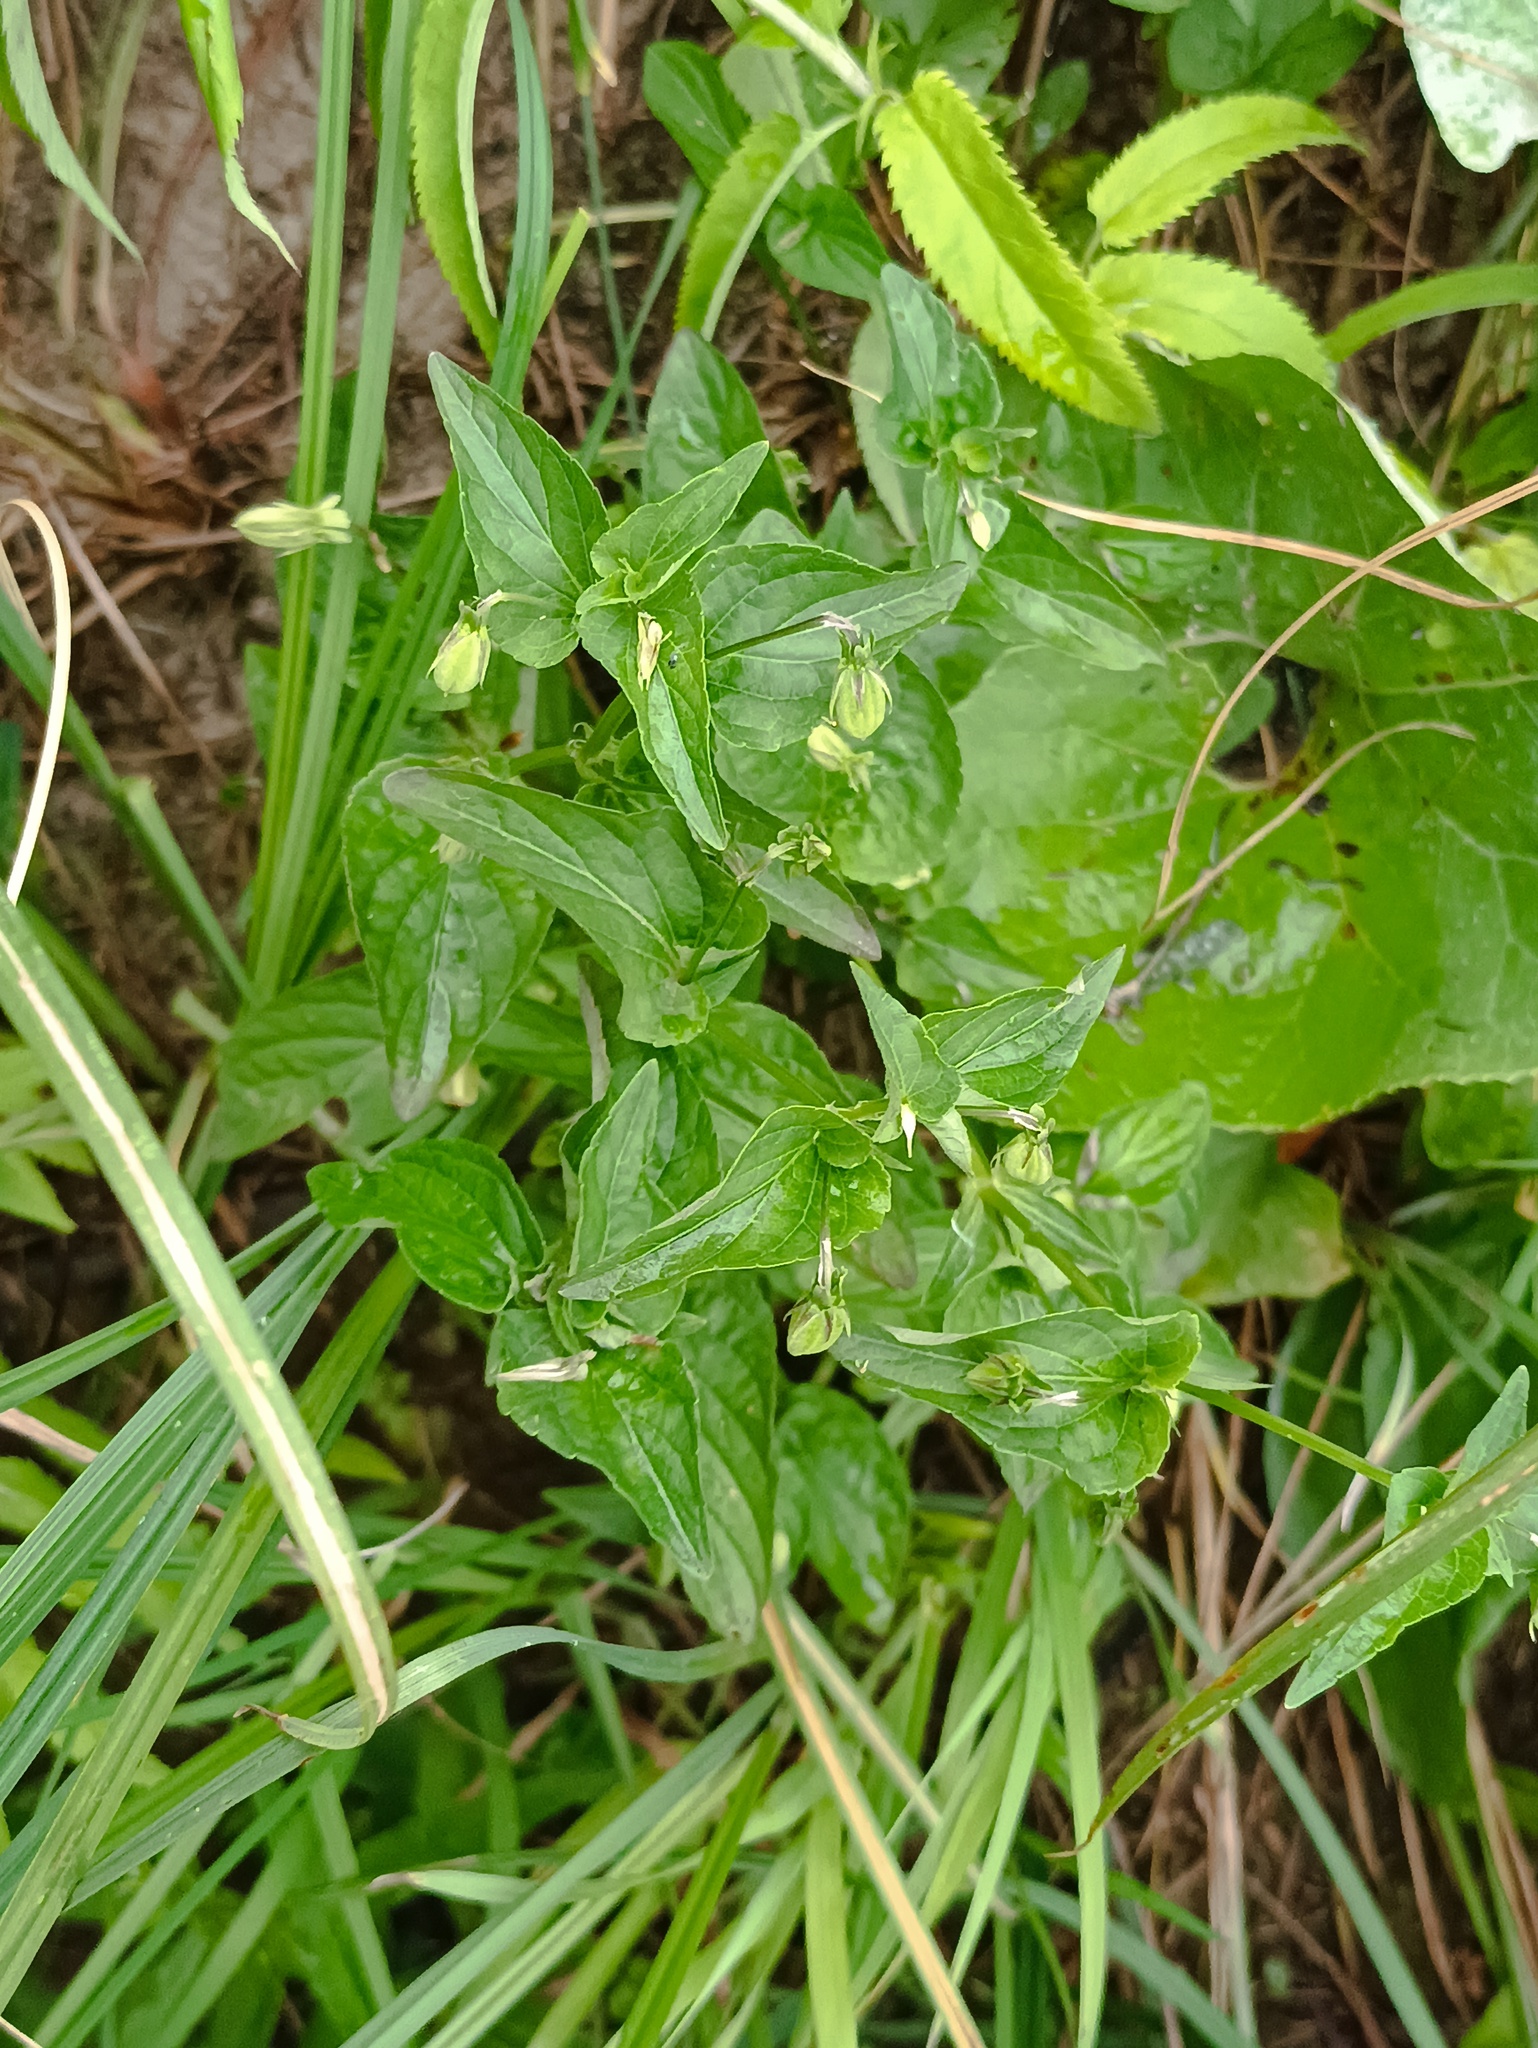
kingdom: Plantae
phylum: Tracheophyta
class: Magnoliopsida
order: Malpighiales
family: Violaceae
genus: Viola
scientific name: Viola
